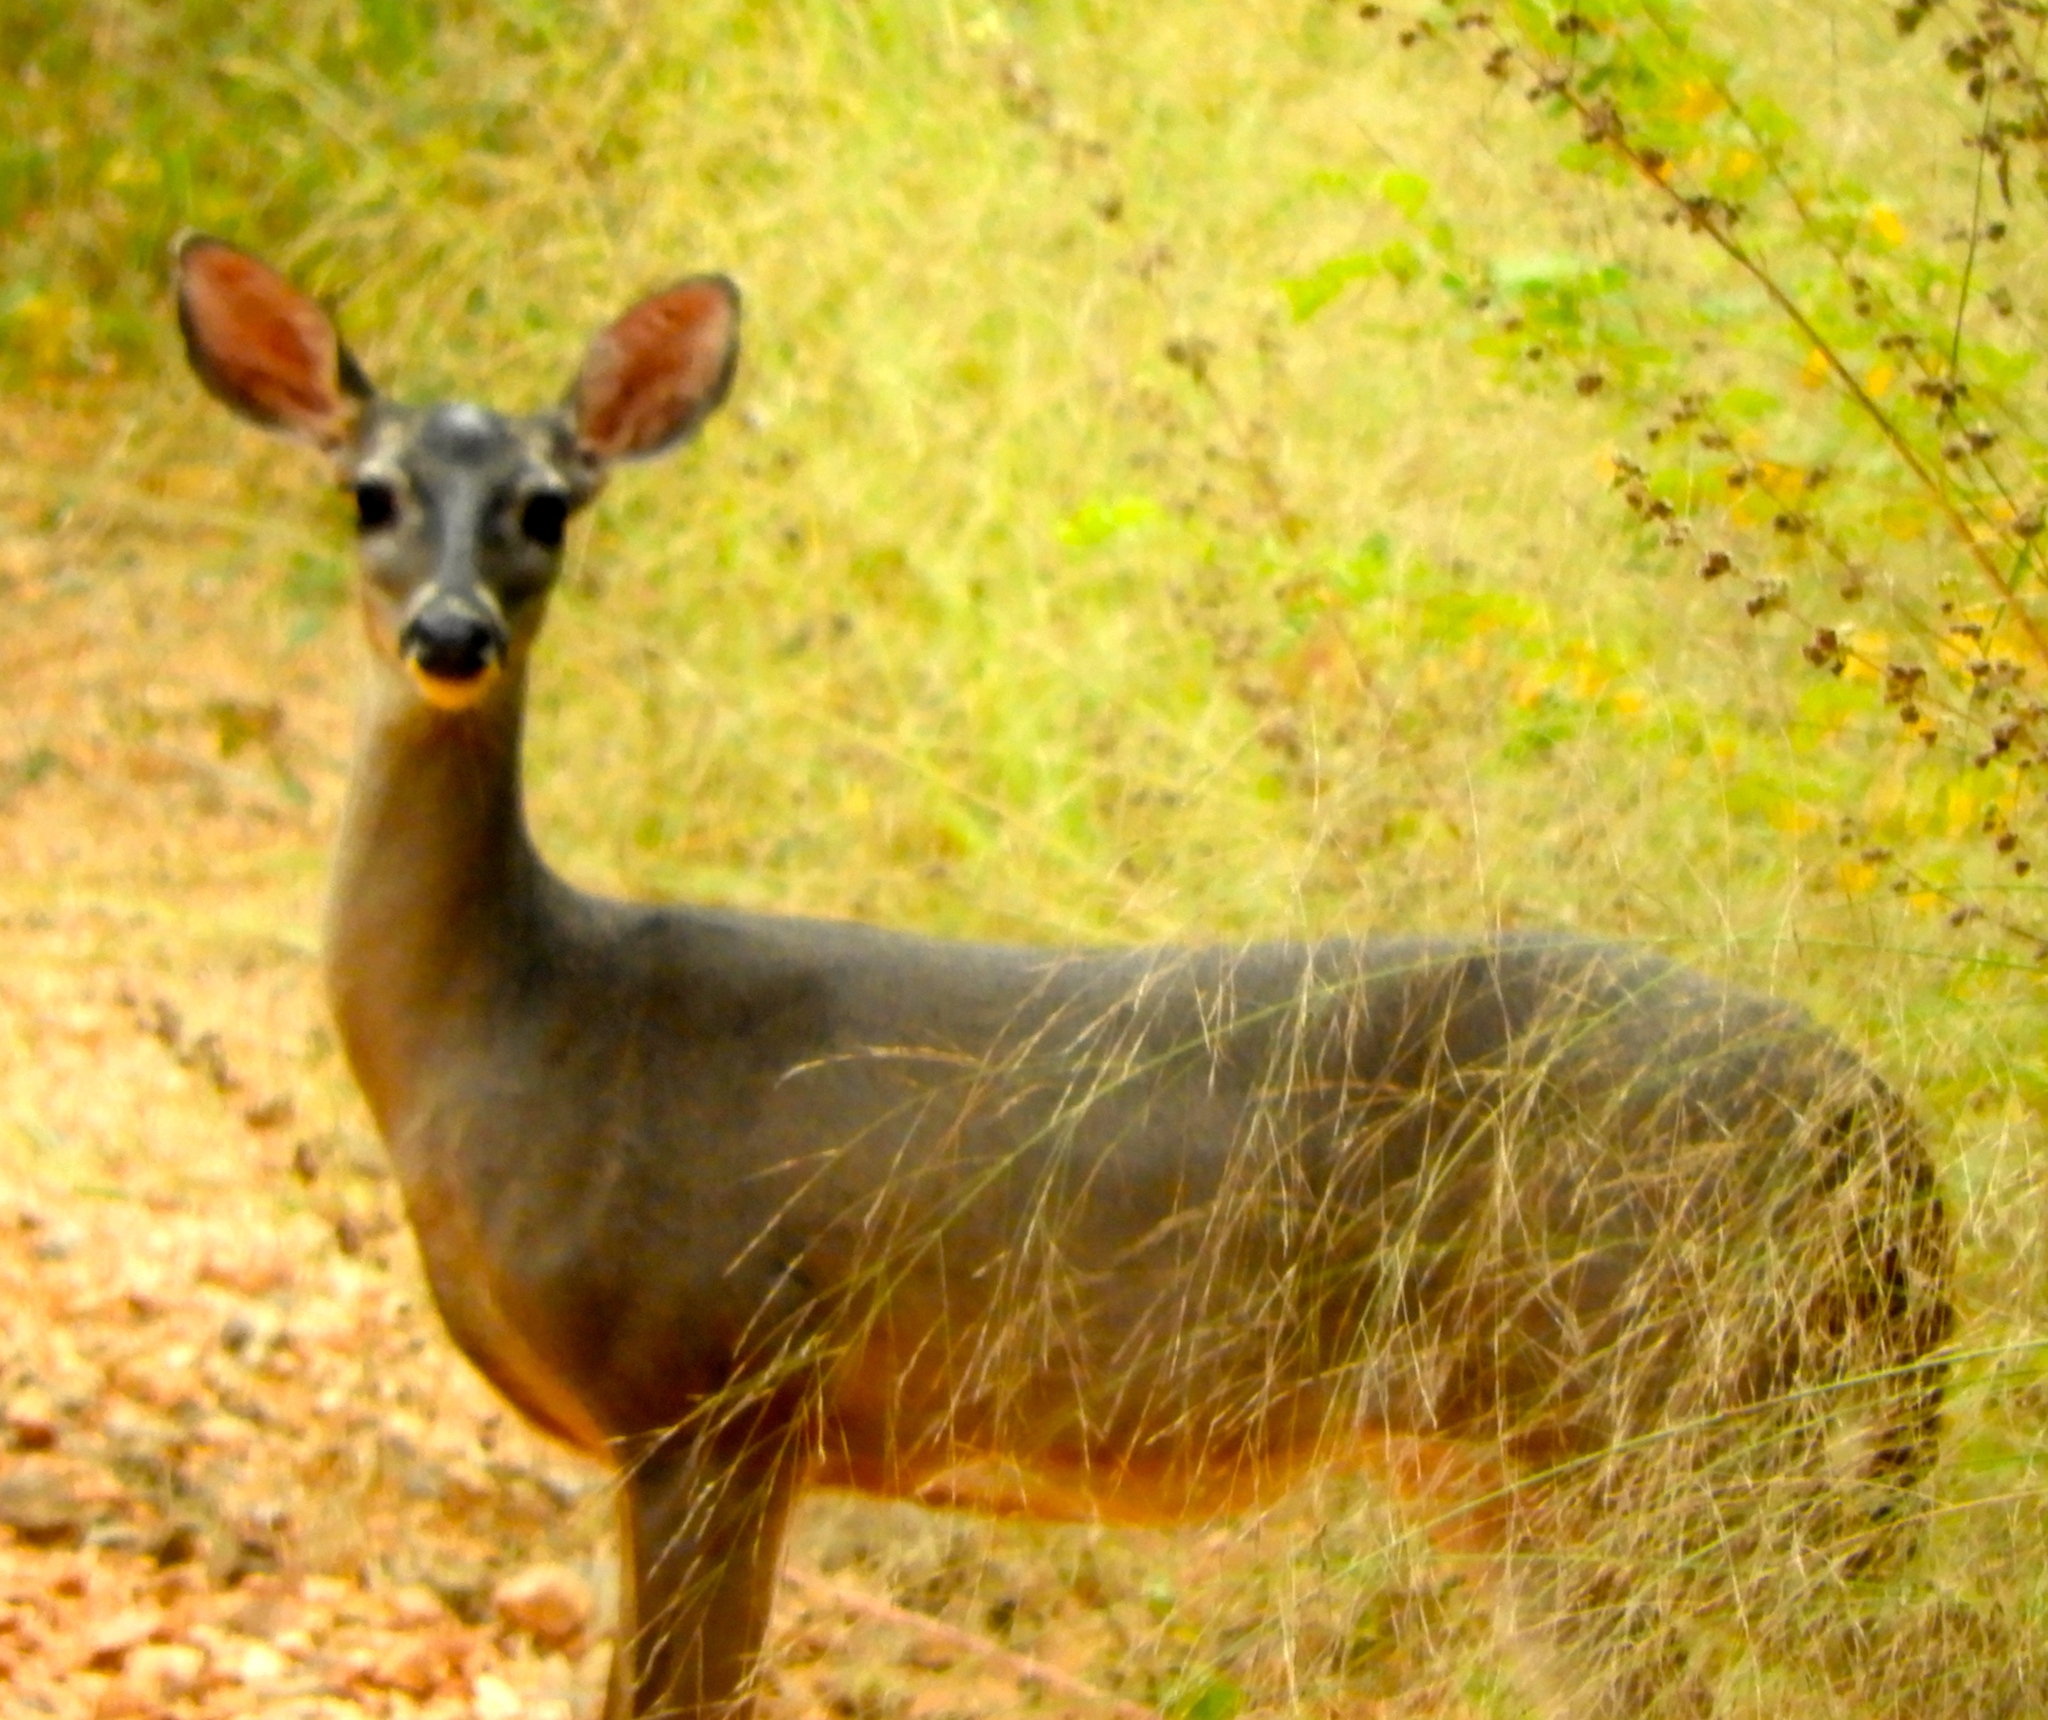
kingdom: Animalia
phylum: Chordata
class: Mammalia
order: Artiodactyla
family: Cervidae
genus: Odocoileus
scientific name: Odocoileus virginianus
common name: White-tailed deer
